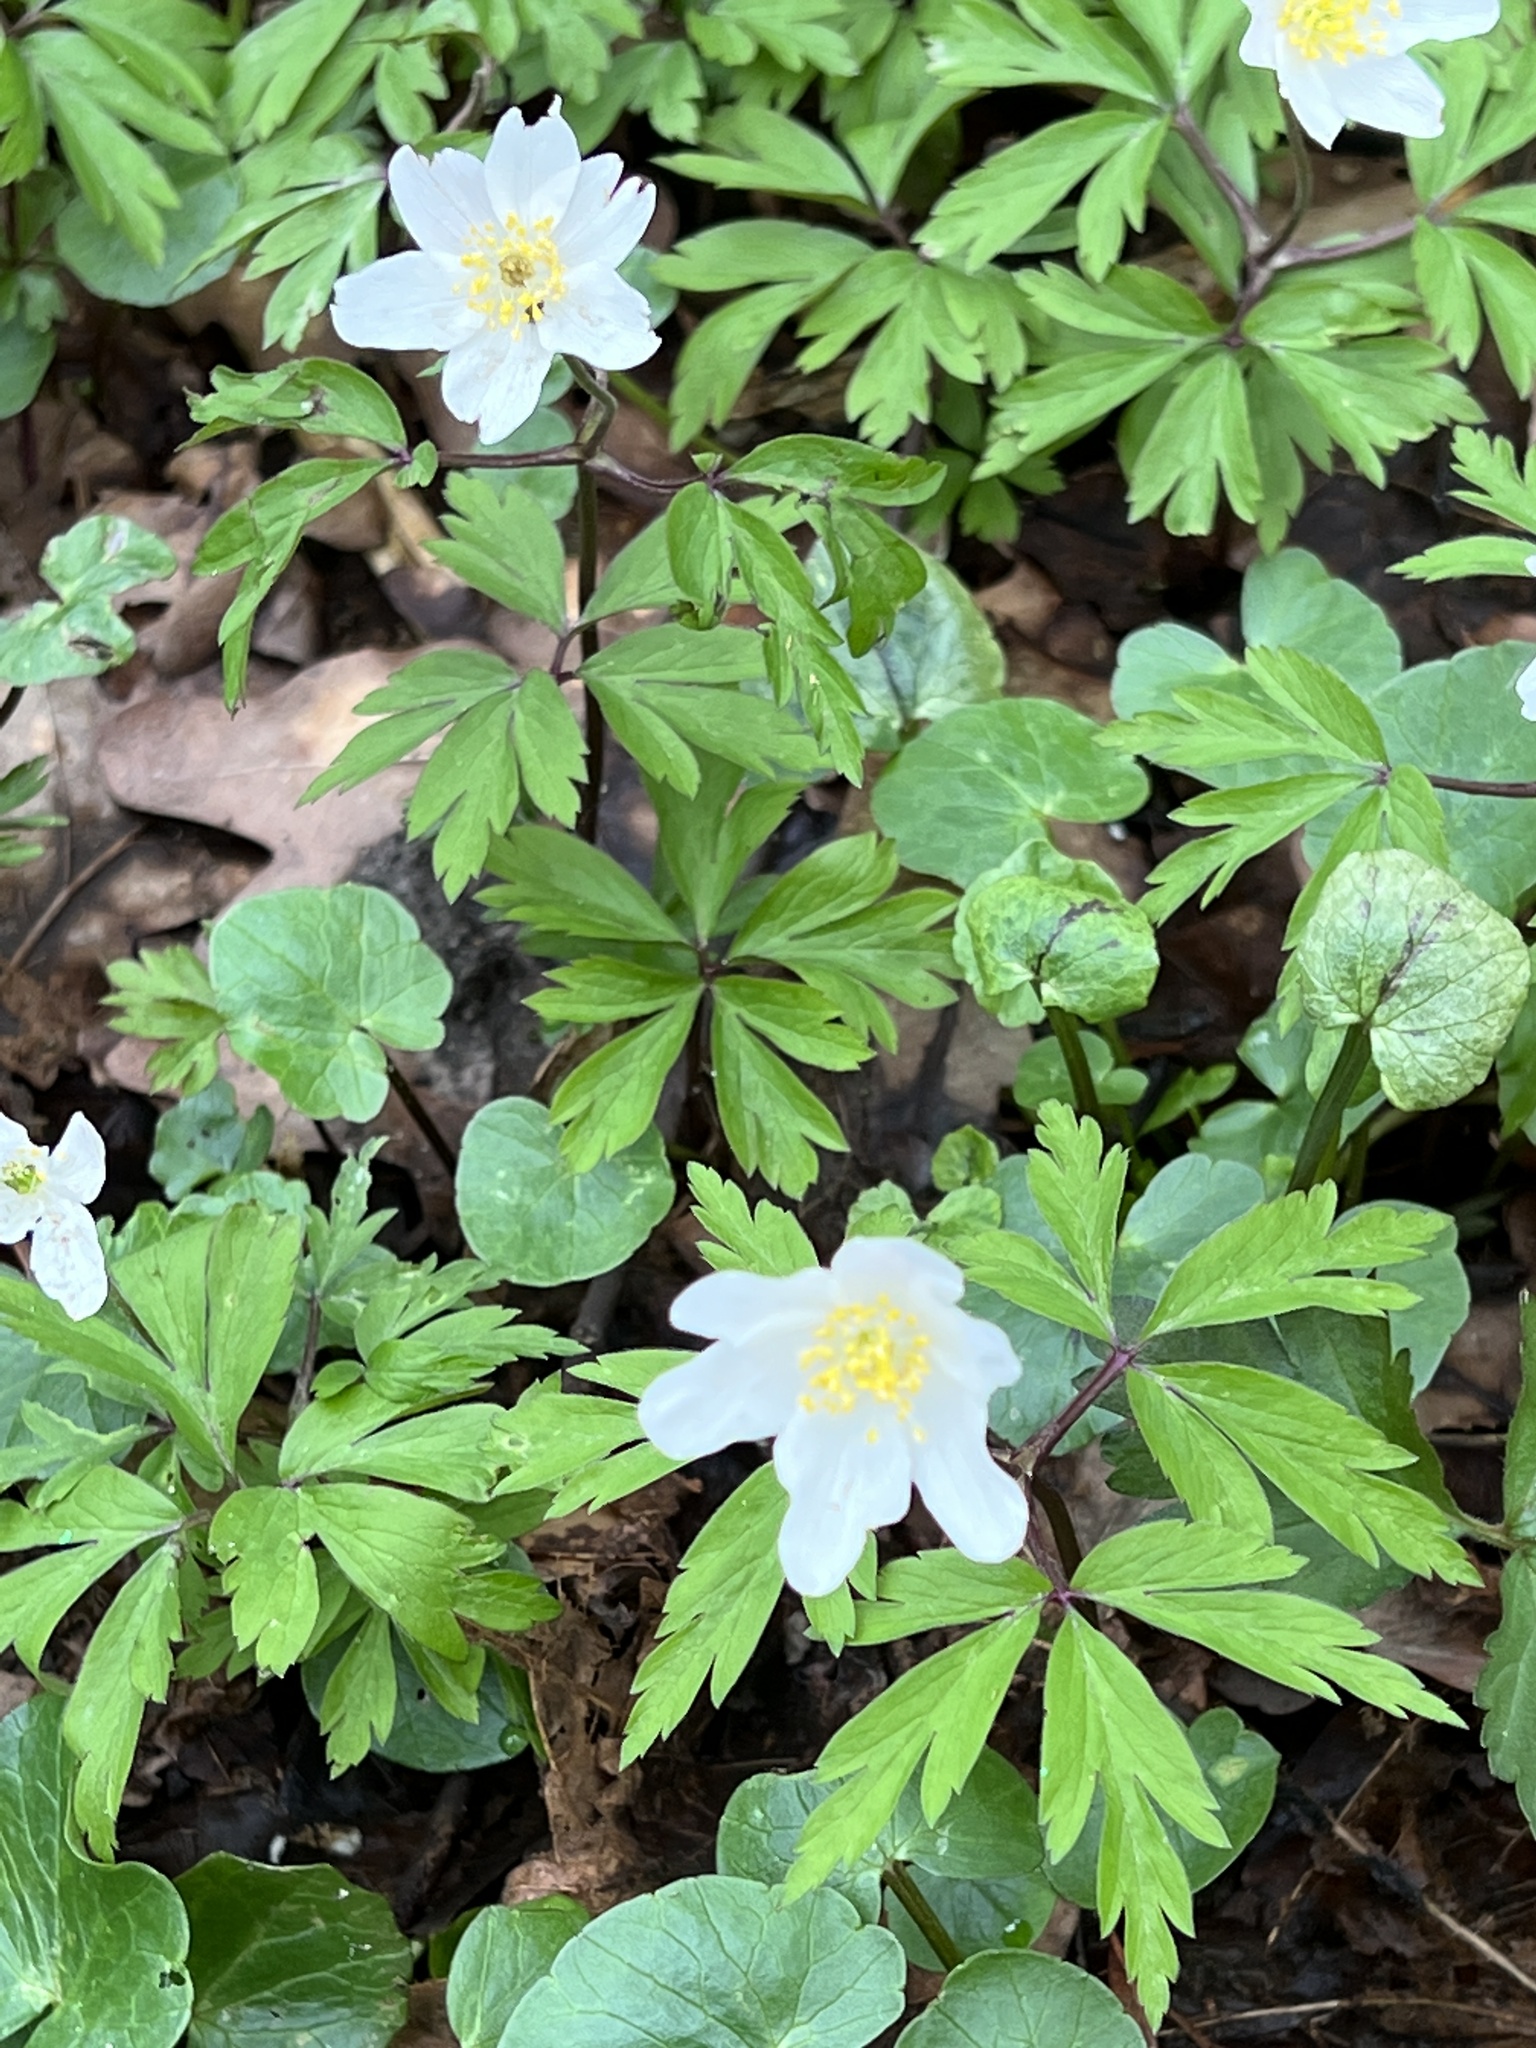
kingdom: Plantae
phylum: Tracheophyta
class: Magnoliopsida
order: Ranunculales
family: Ranunculaceae
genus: Anemone
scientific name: Anemone nemorosa
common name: Wood anemone
